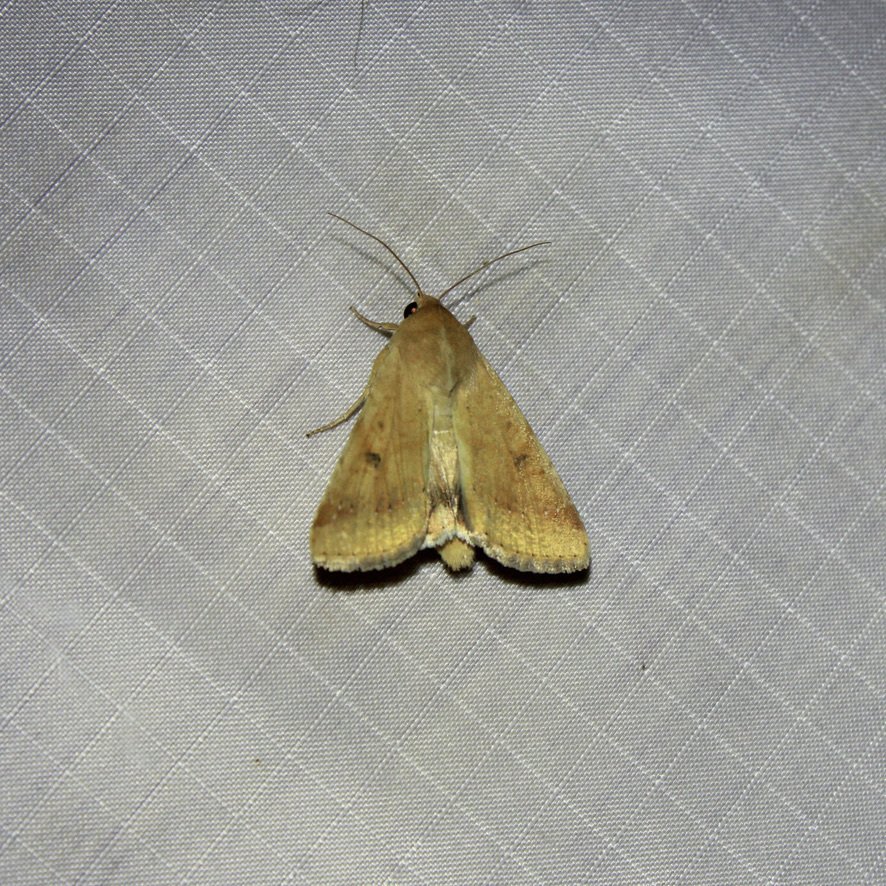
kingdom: Animalia
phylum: Arthropoda
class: Insecta
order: Lepidoptera
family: Noctuidae
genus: Helicoverpa
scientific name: Helicoverpa zea
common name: Bollworm
